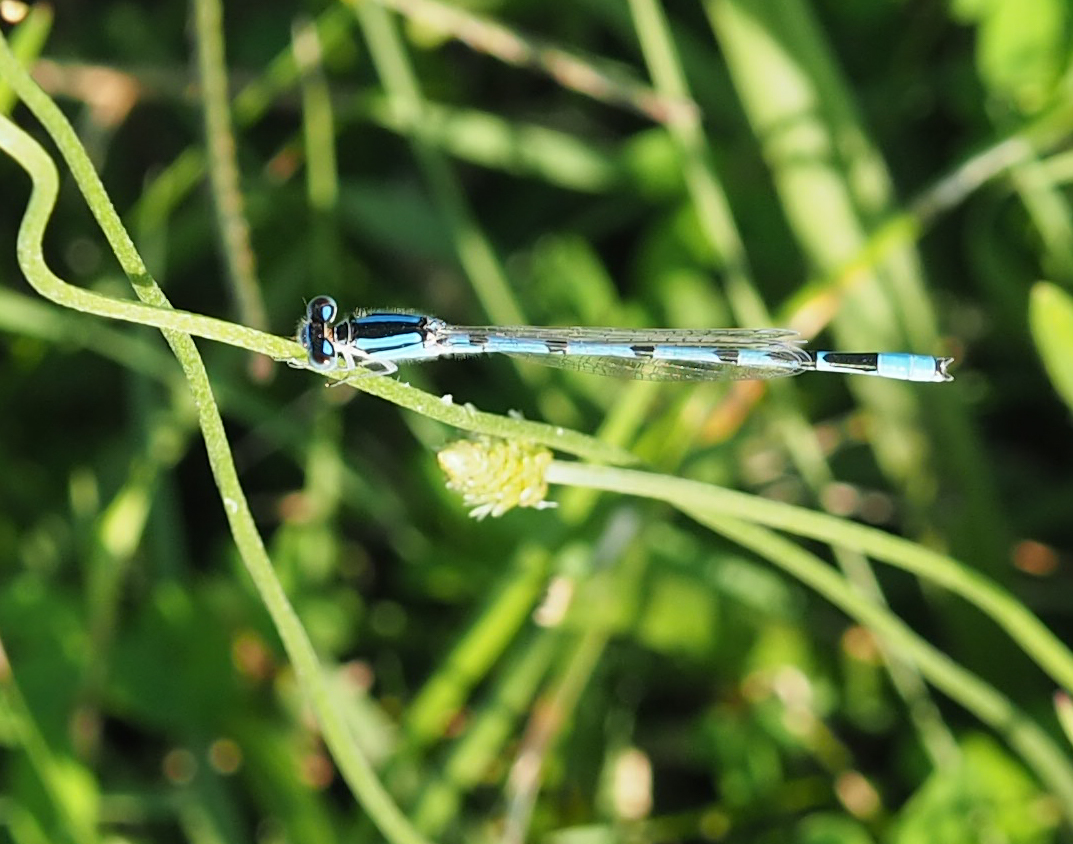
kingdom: Animalia
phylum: Arthropoda
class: Insecta
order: Odonata
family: Coenagrionidae
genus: Enallagma
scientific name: Enallagma civile
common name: Damselfly
